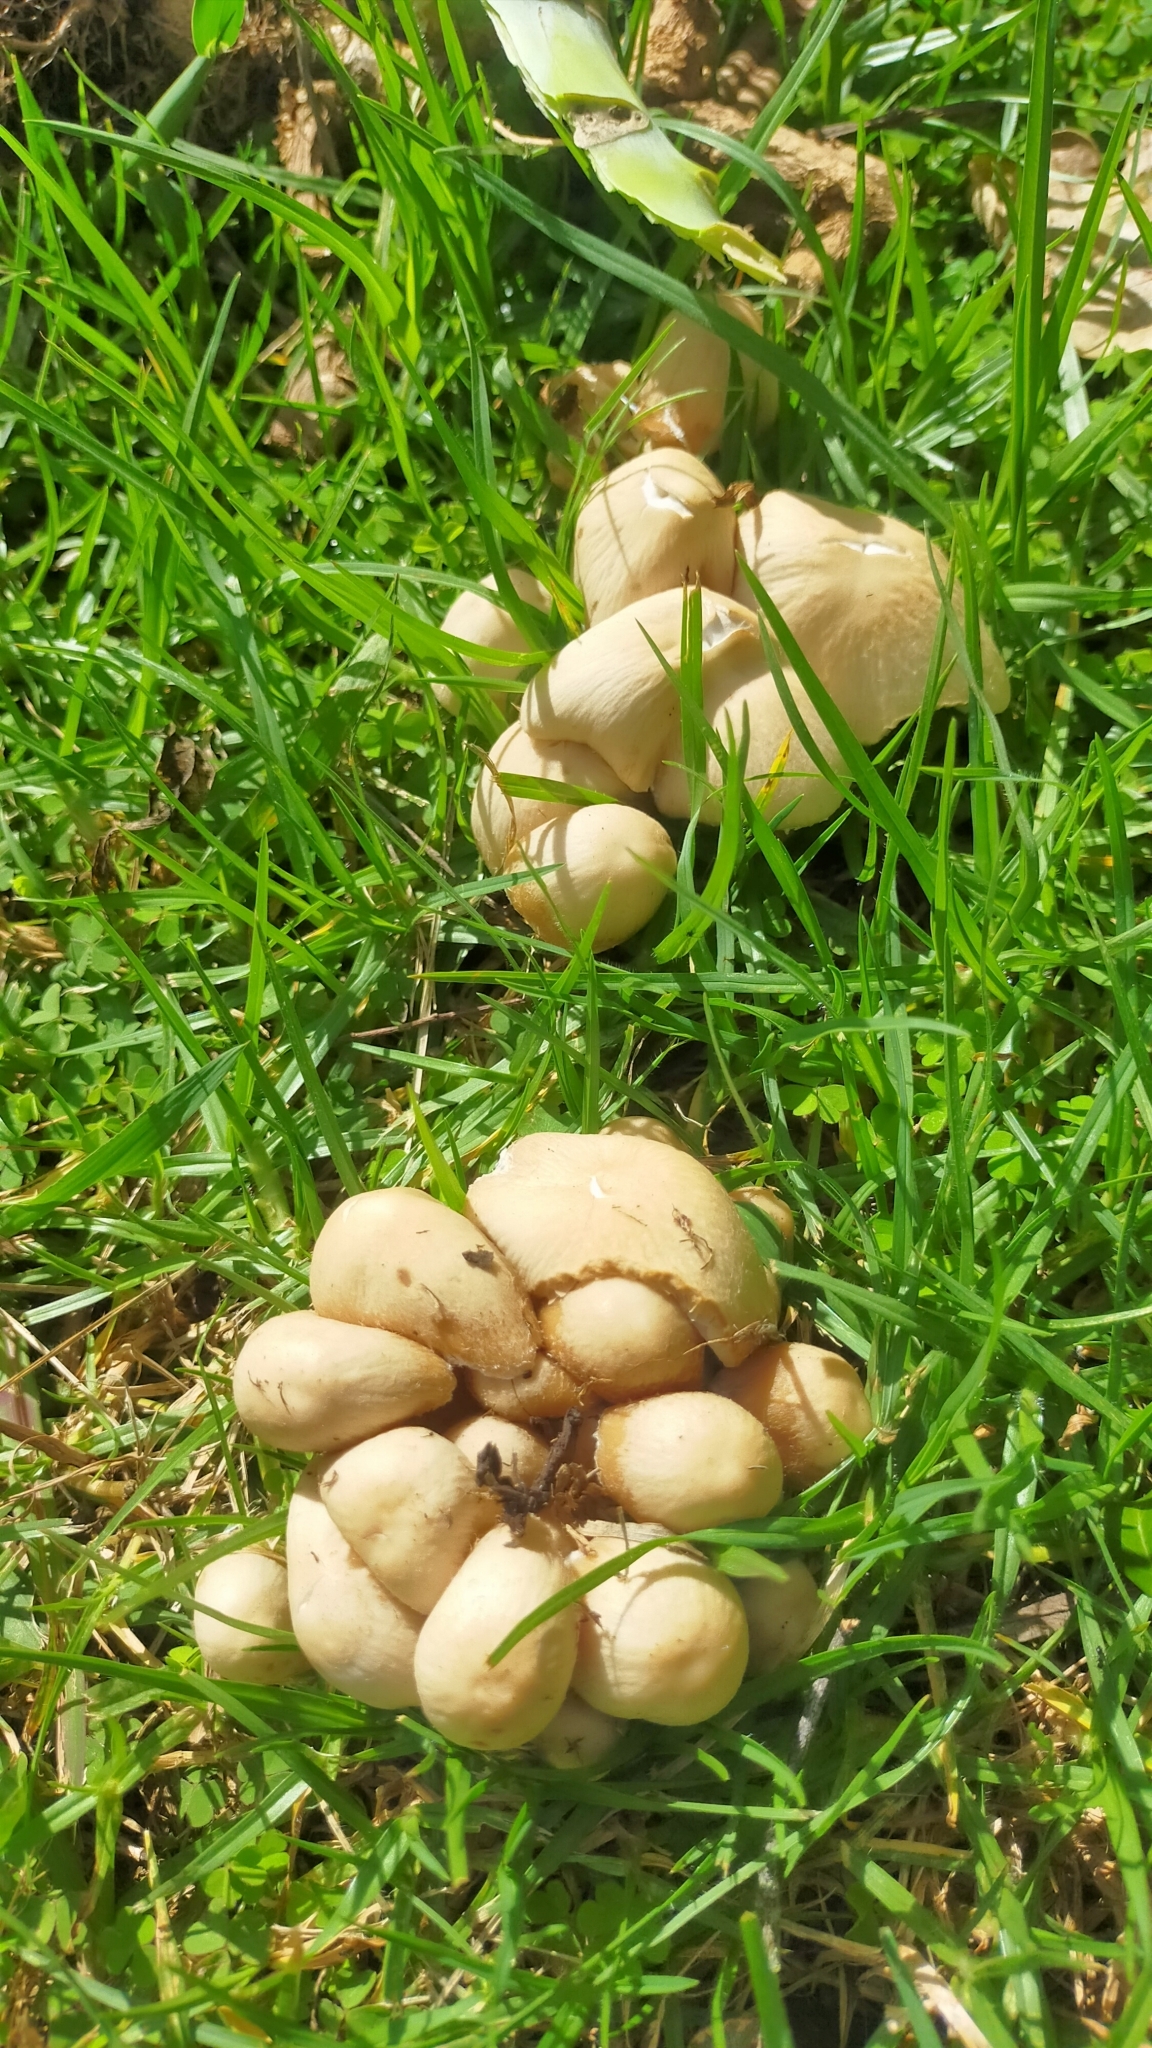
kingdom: Fungi
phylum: Basidiomycota
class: Agaricomycetes
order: Agaricales
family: Psathyrellaceae
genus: Candolleomyces
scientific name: Candolleomyces candolleanus
